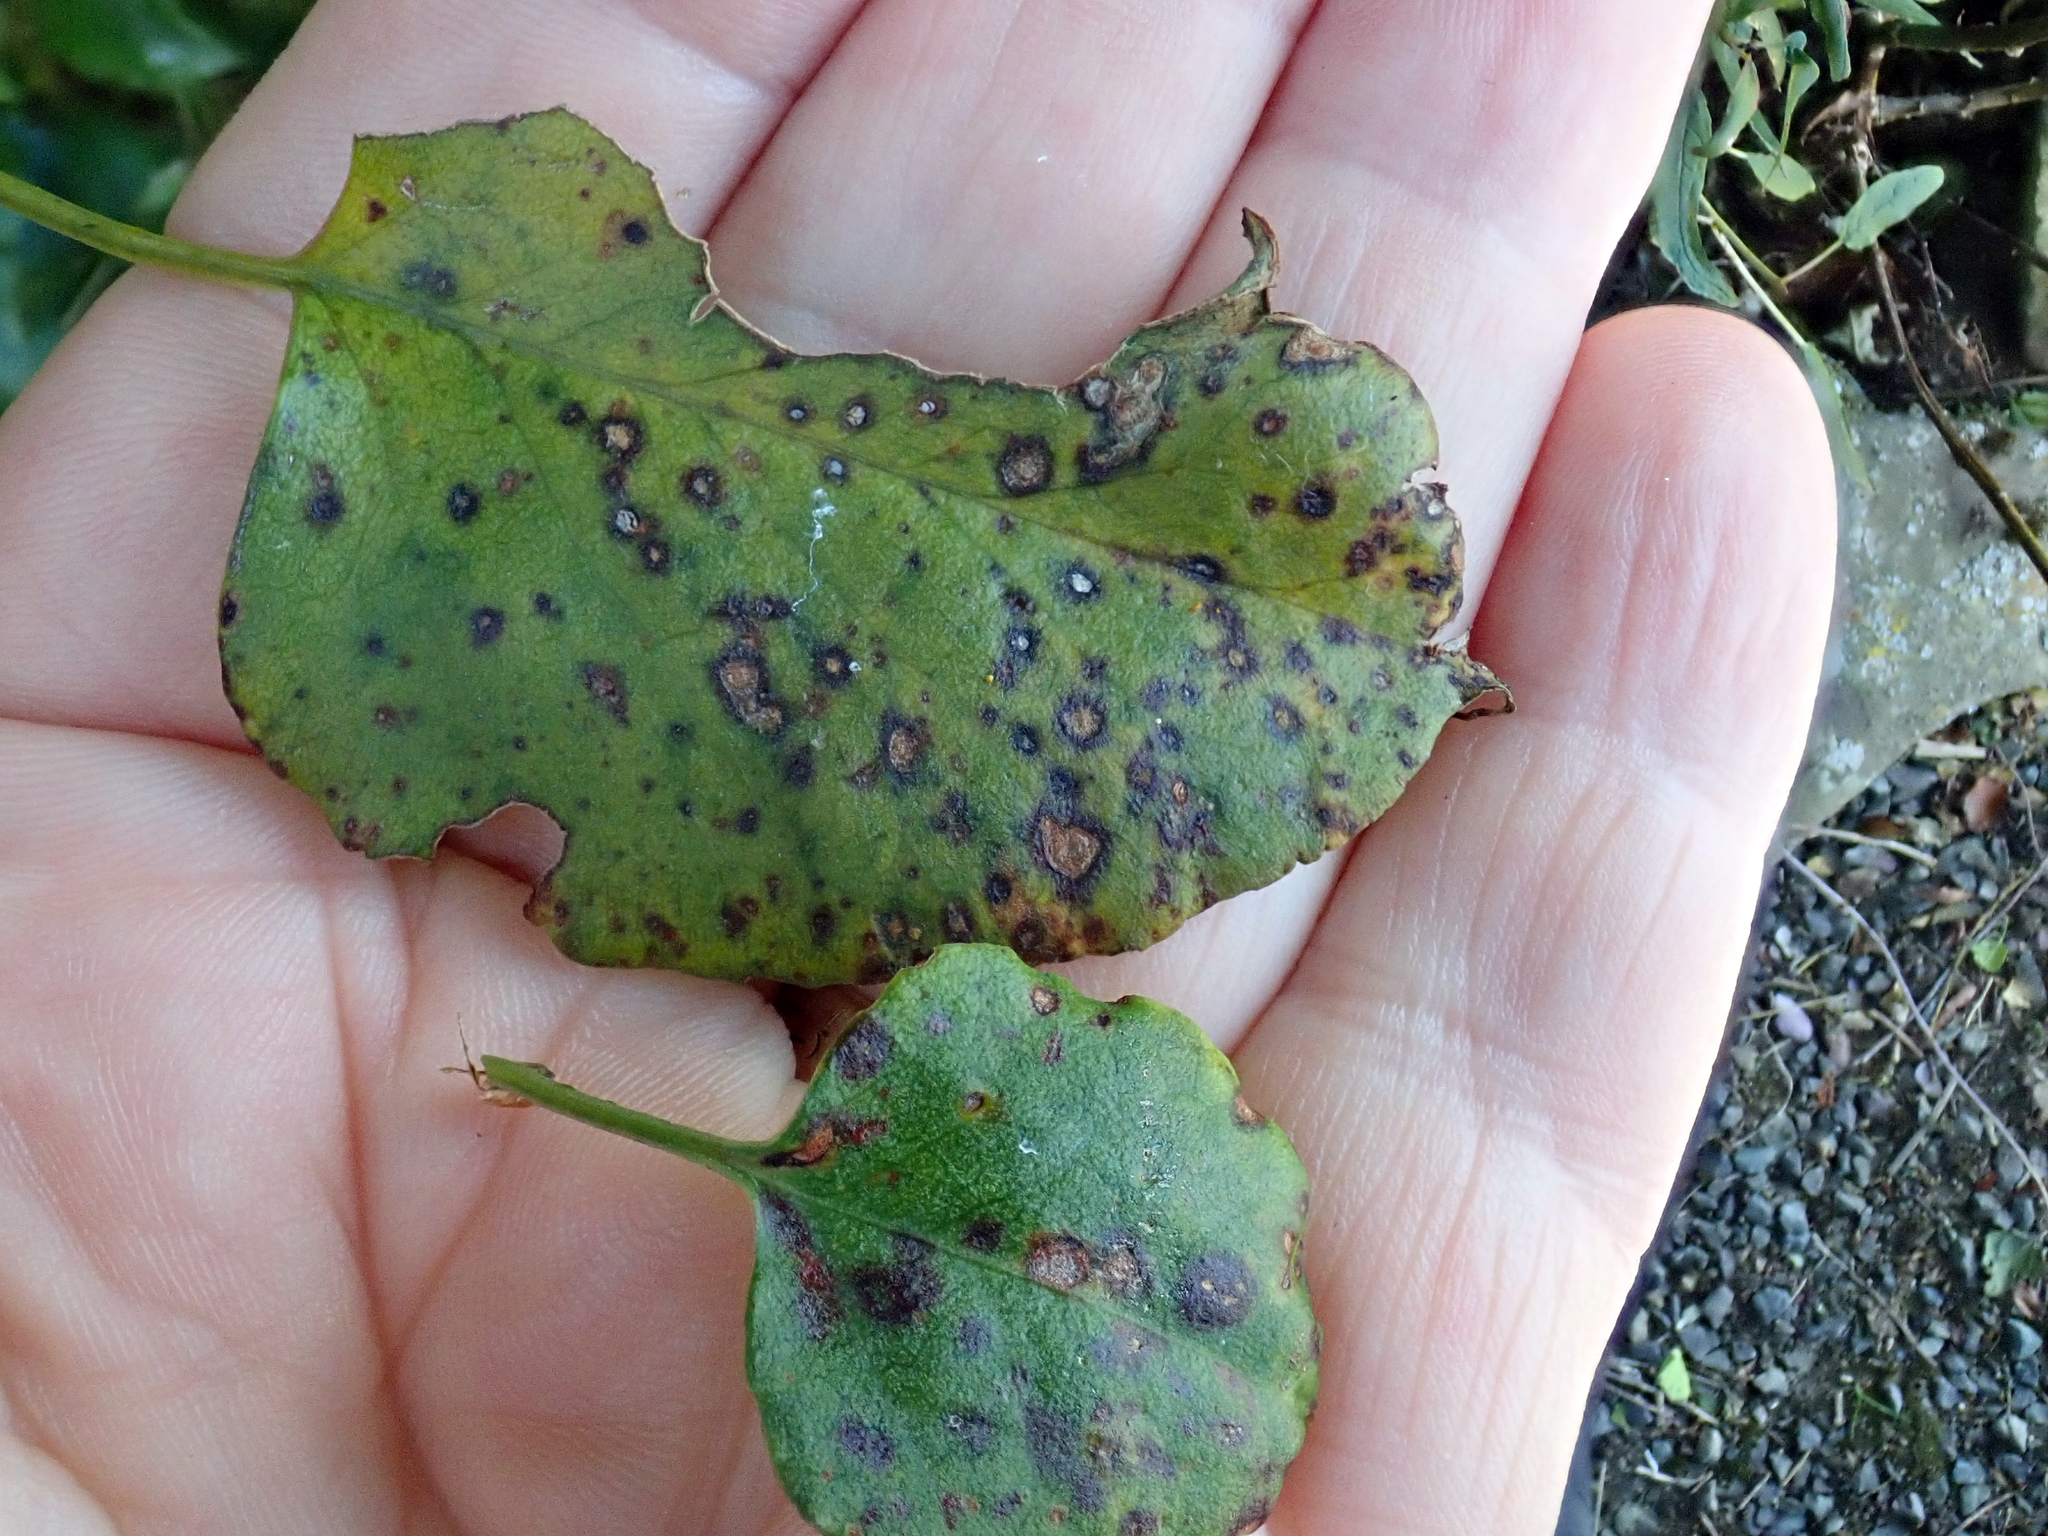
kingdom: Fungi
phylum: Basidiomycota
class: Pucciniomycetes
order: Pucciniales
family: Pucciniaceae
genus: Puccinia
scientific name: Puccinia otagensis
